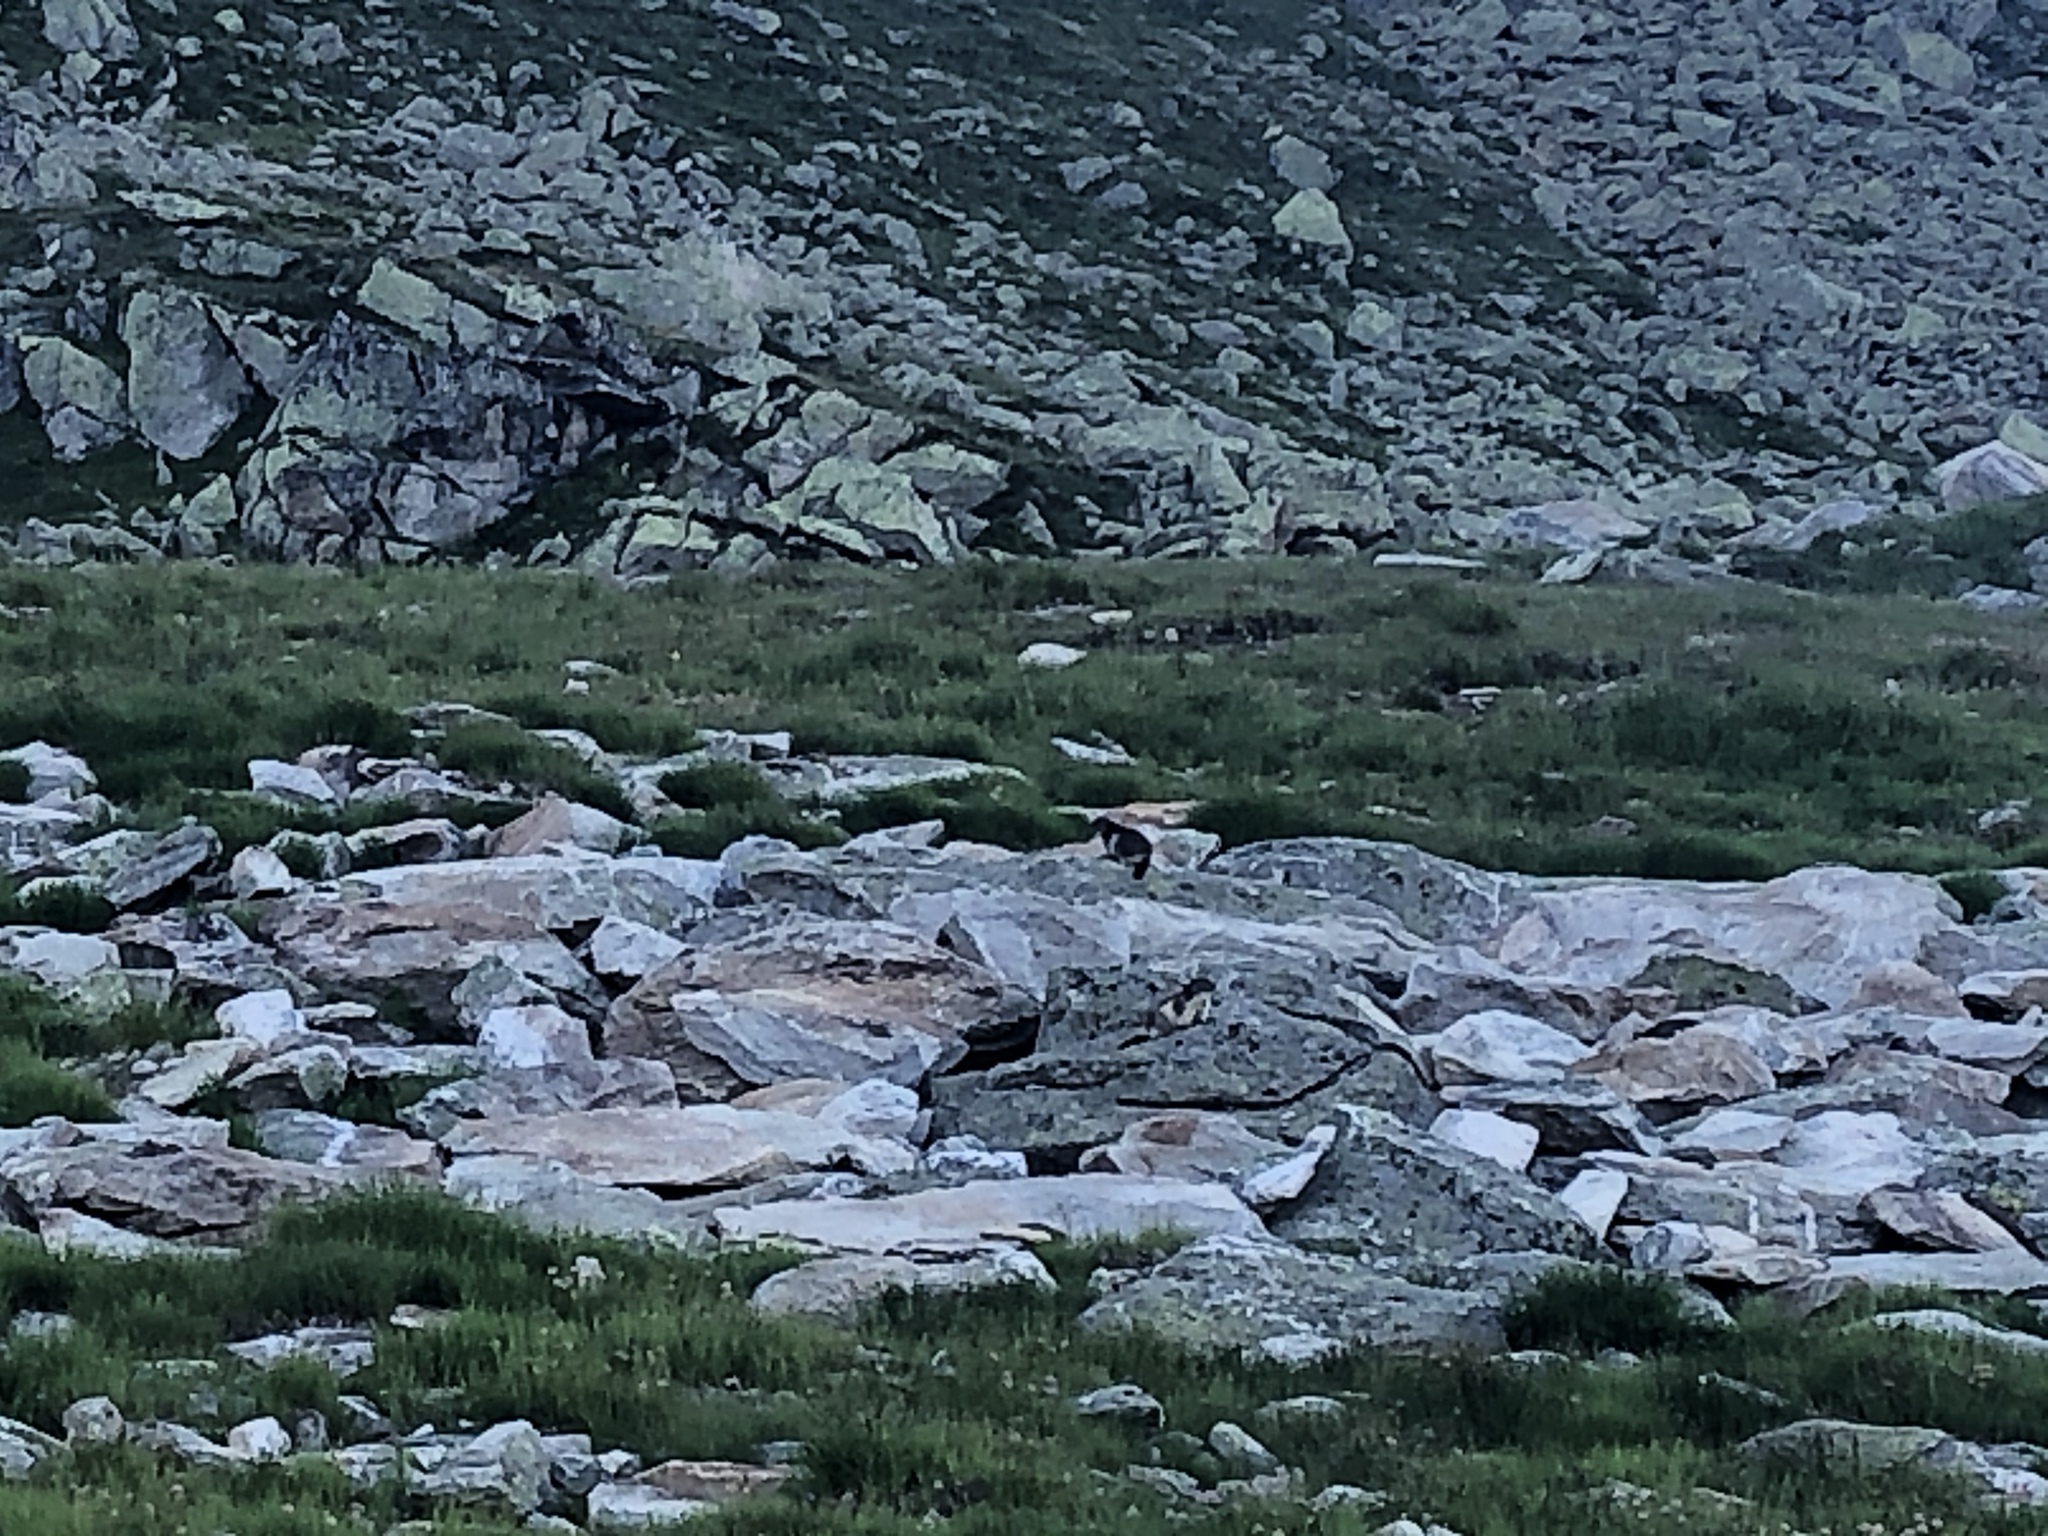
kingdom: Animalia
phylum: Chordata
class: Mammalia
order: Rodentia
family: Sciuridae
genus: Marmota
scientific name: Marmota marmota
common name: Alpine marmot
